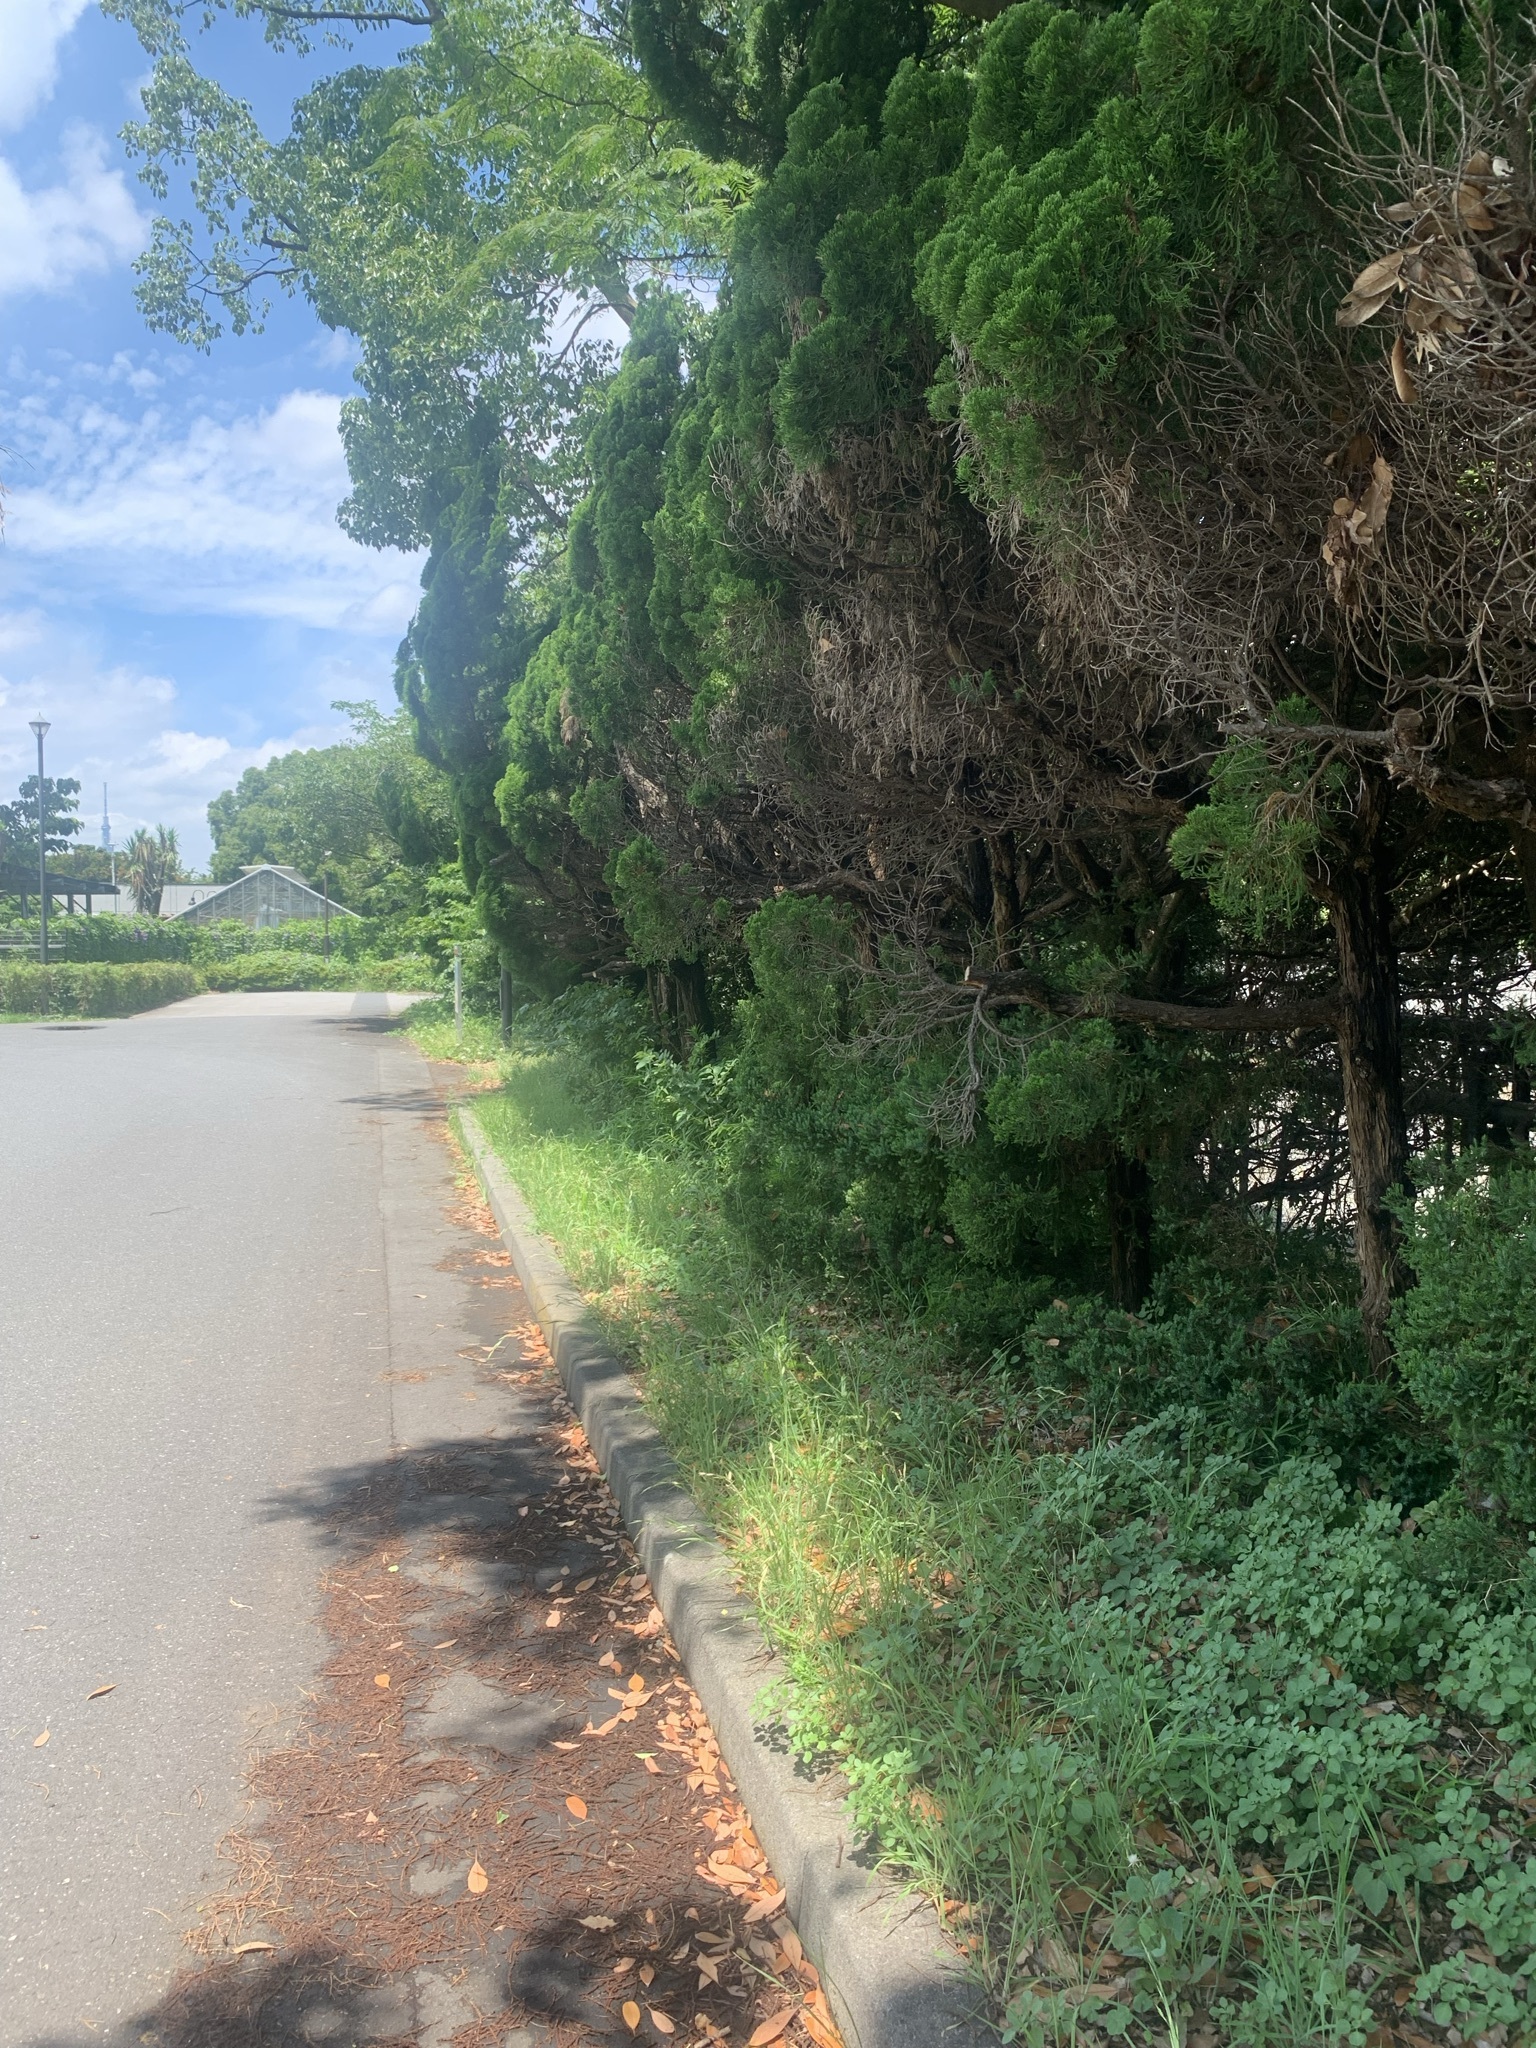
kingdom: Animalia
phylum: Arthropoda
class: Insecta
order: Hemiptera
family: Cicadidae
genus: Platypleura
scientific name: Platypleura kaempferi
